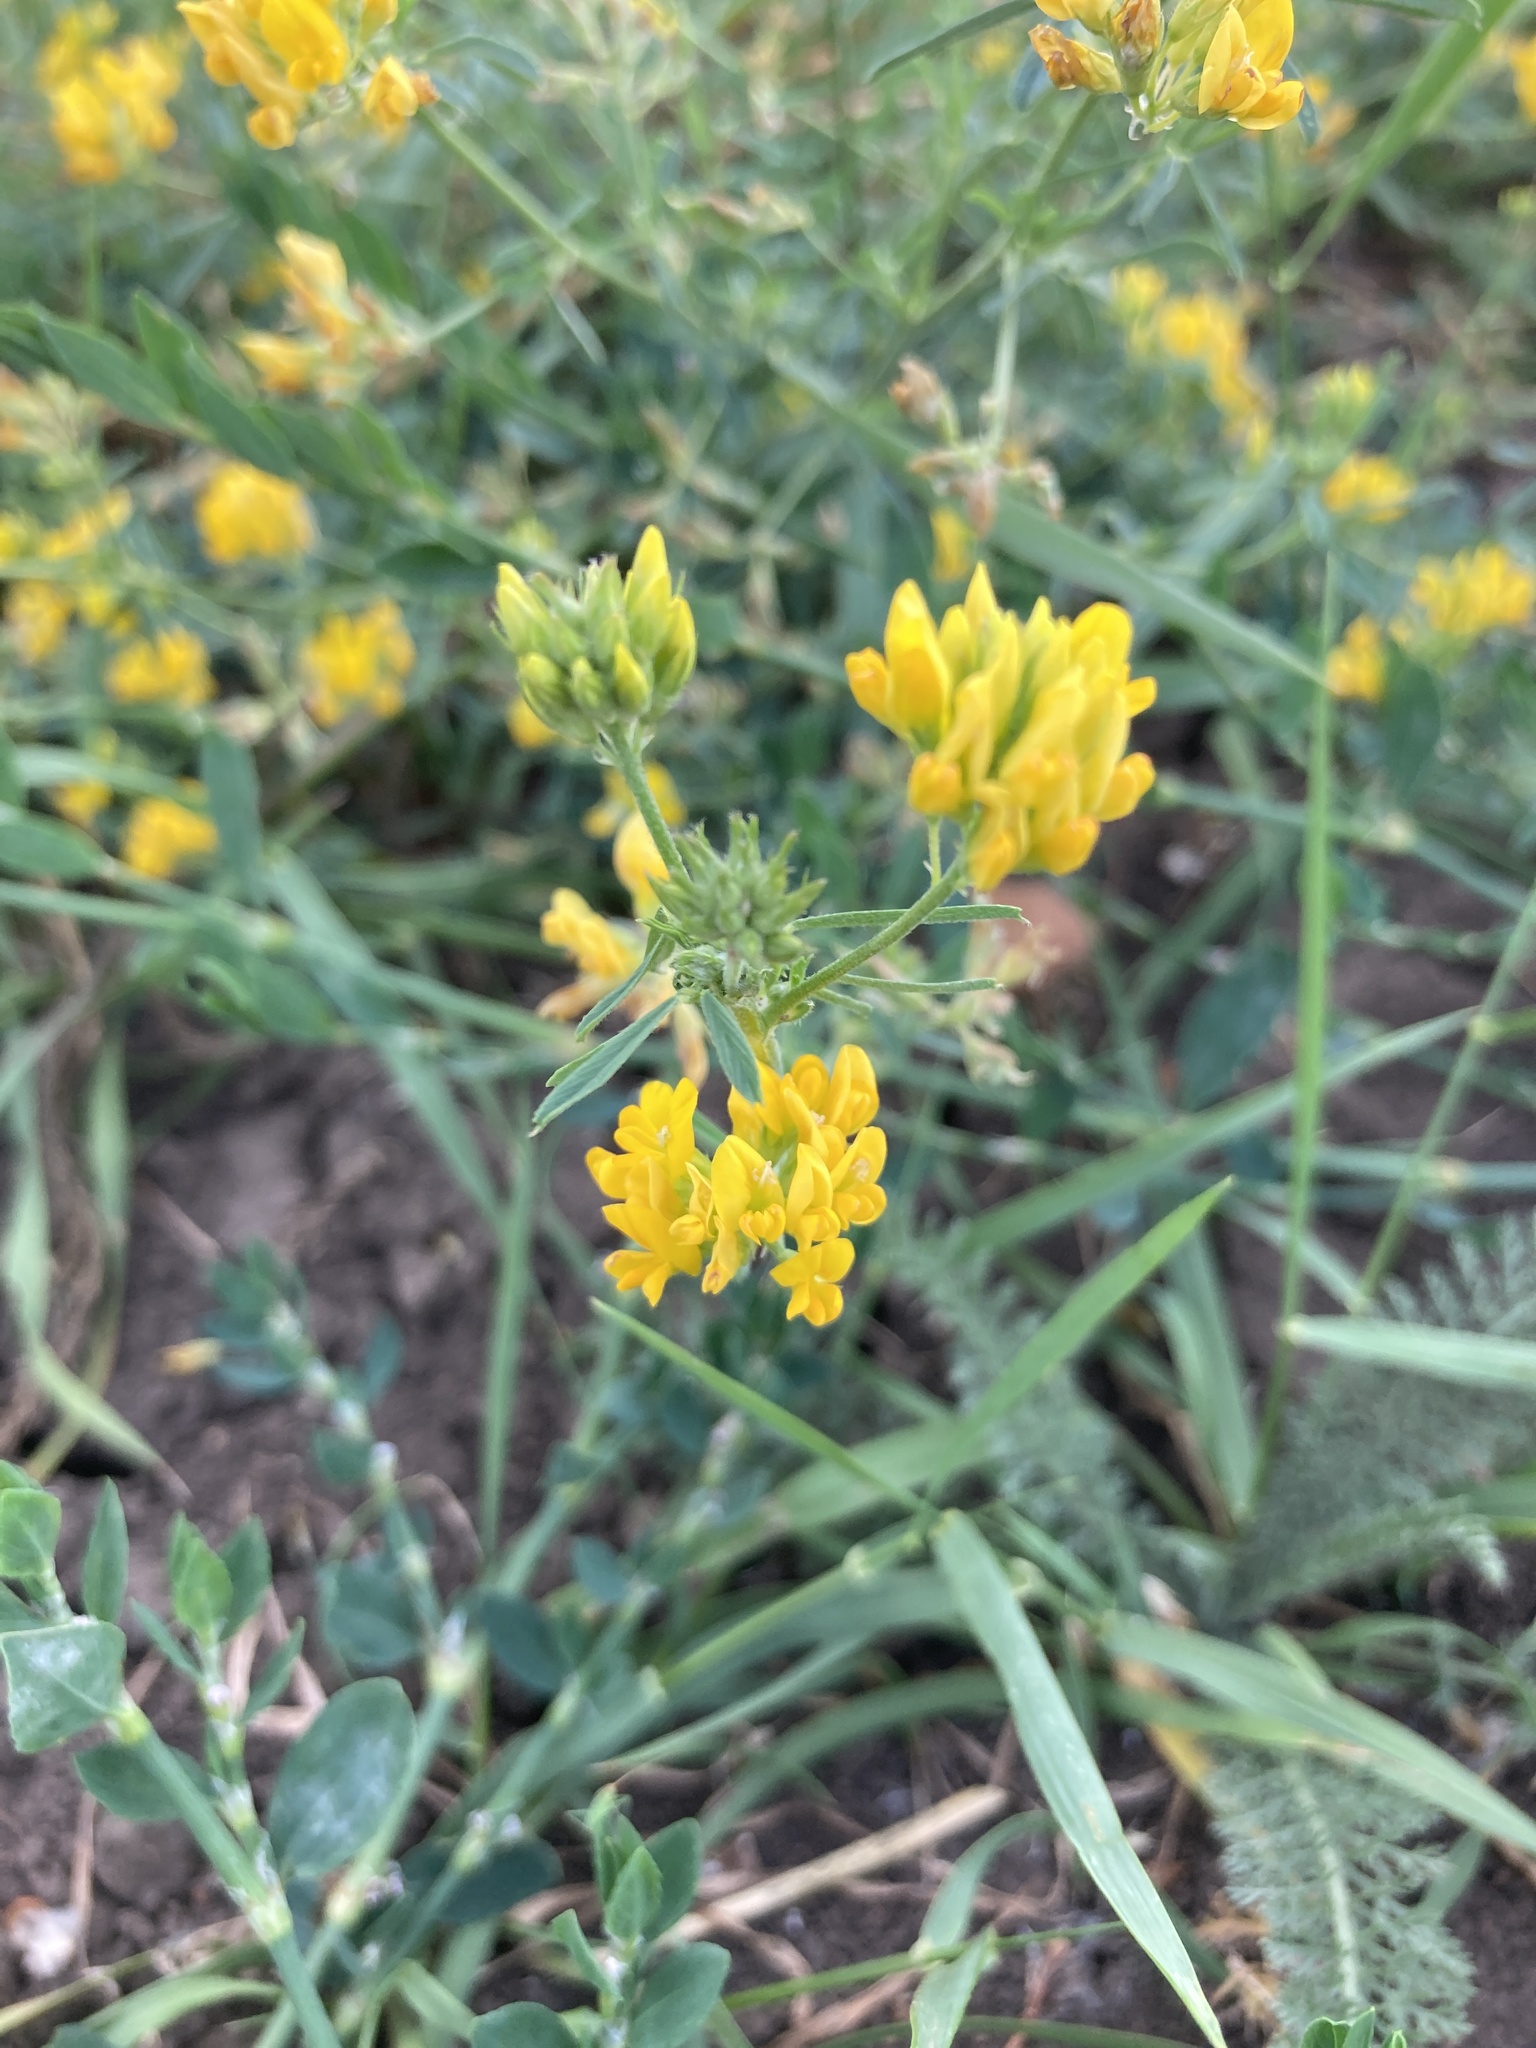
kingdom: Plantae
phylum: Tracheophyta
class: Magnoliopsida
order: Fabales
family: Fabaceae
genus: Medicago
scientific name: Medicago falcata
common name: Sickle medick
